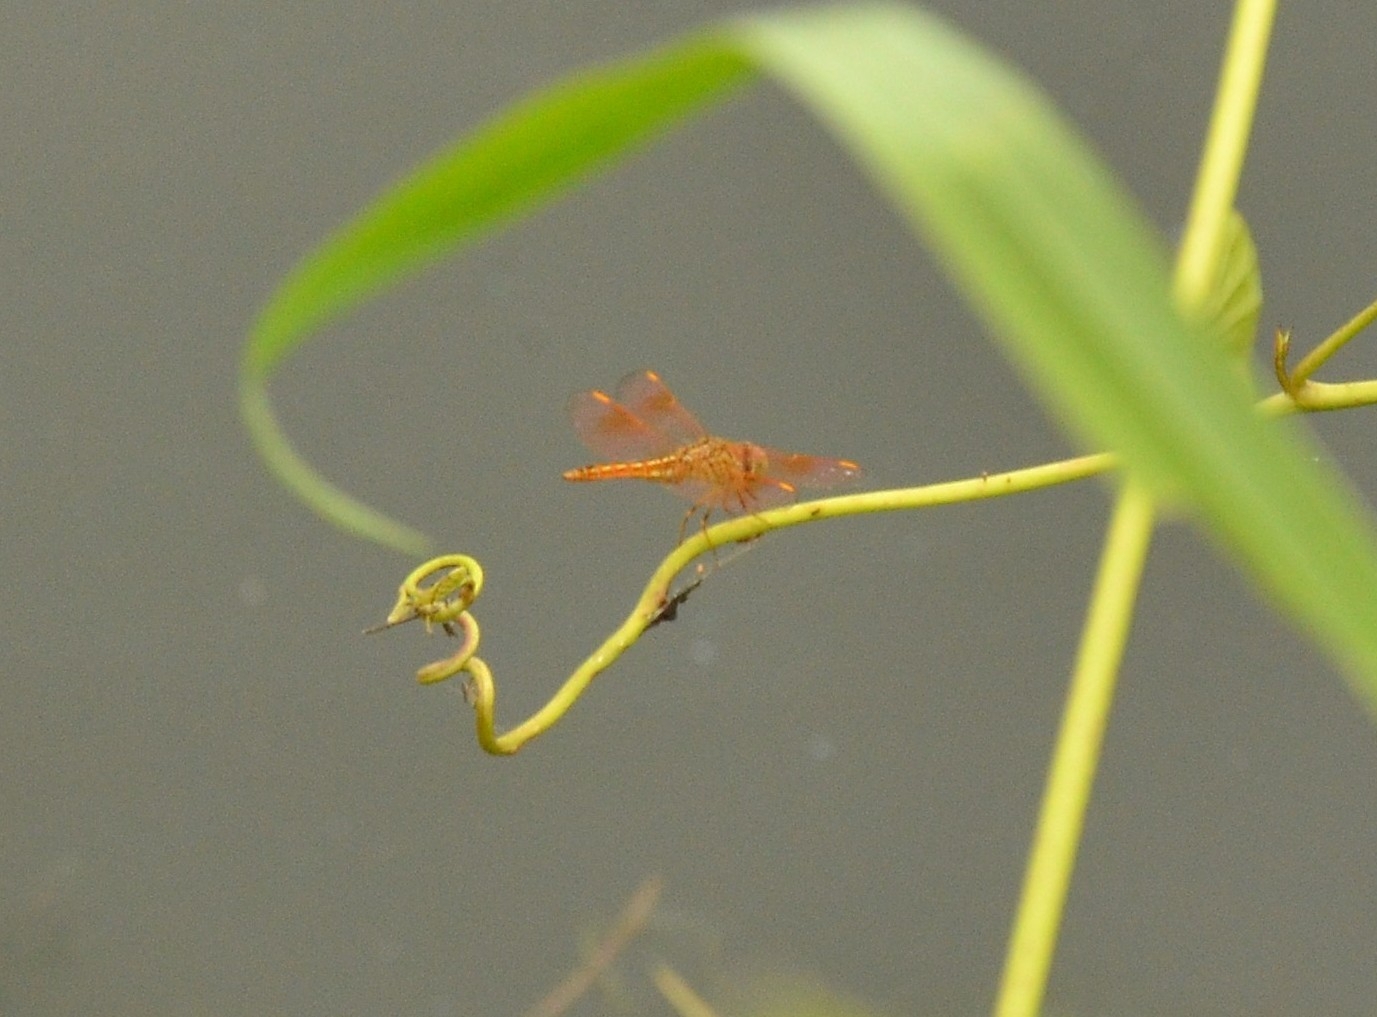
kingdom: Animalia
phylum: Arthropoda
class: Insecta
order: Odonata
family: Libellulidae
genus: Brachythemis
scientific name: Brachythemis contaminata
